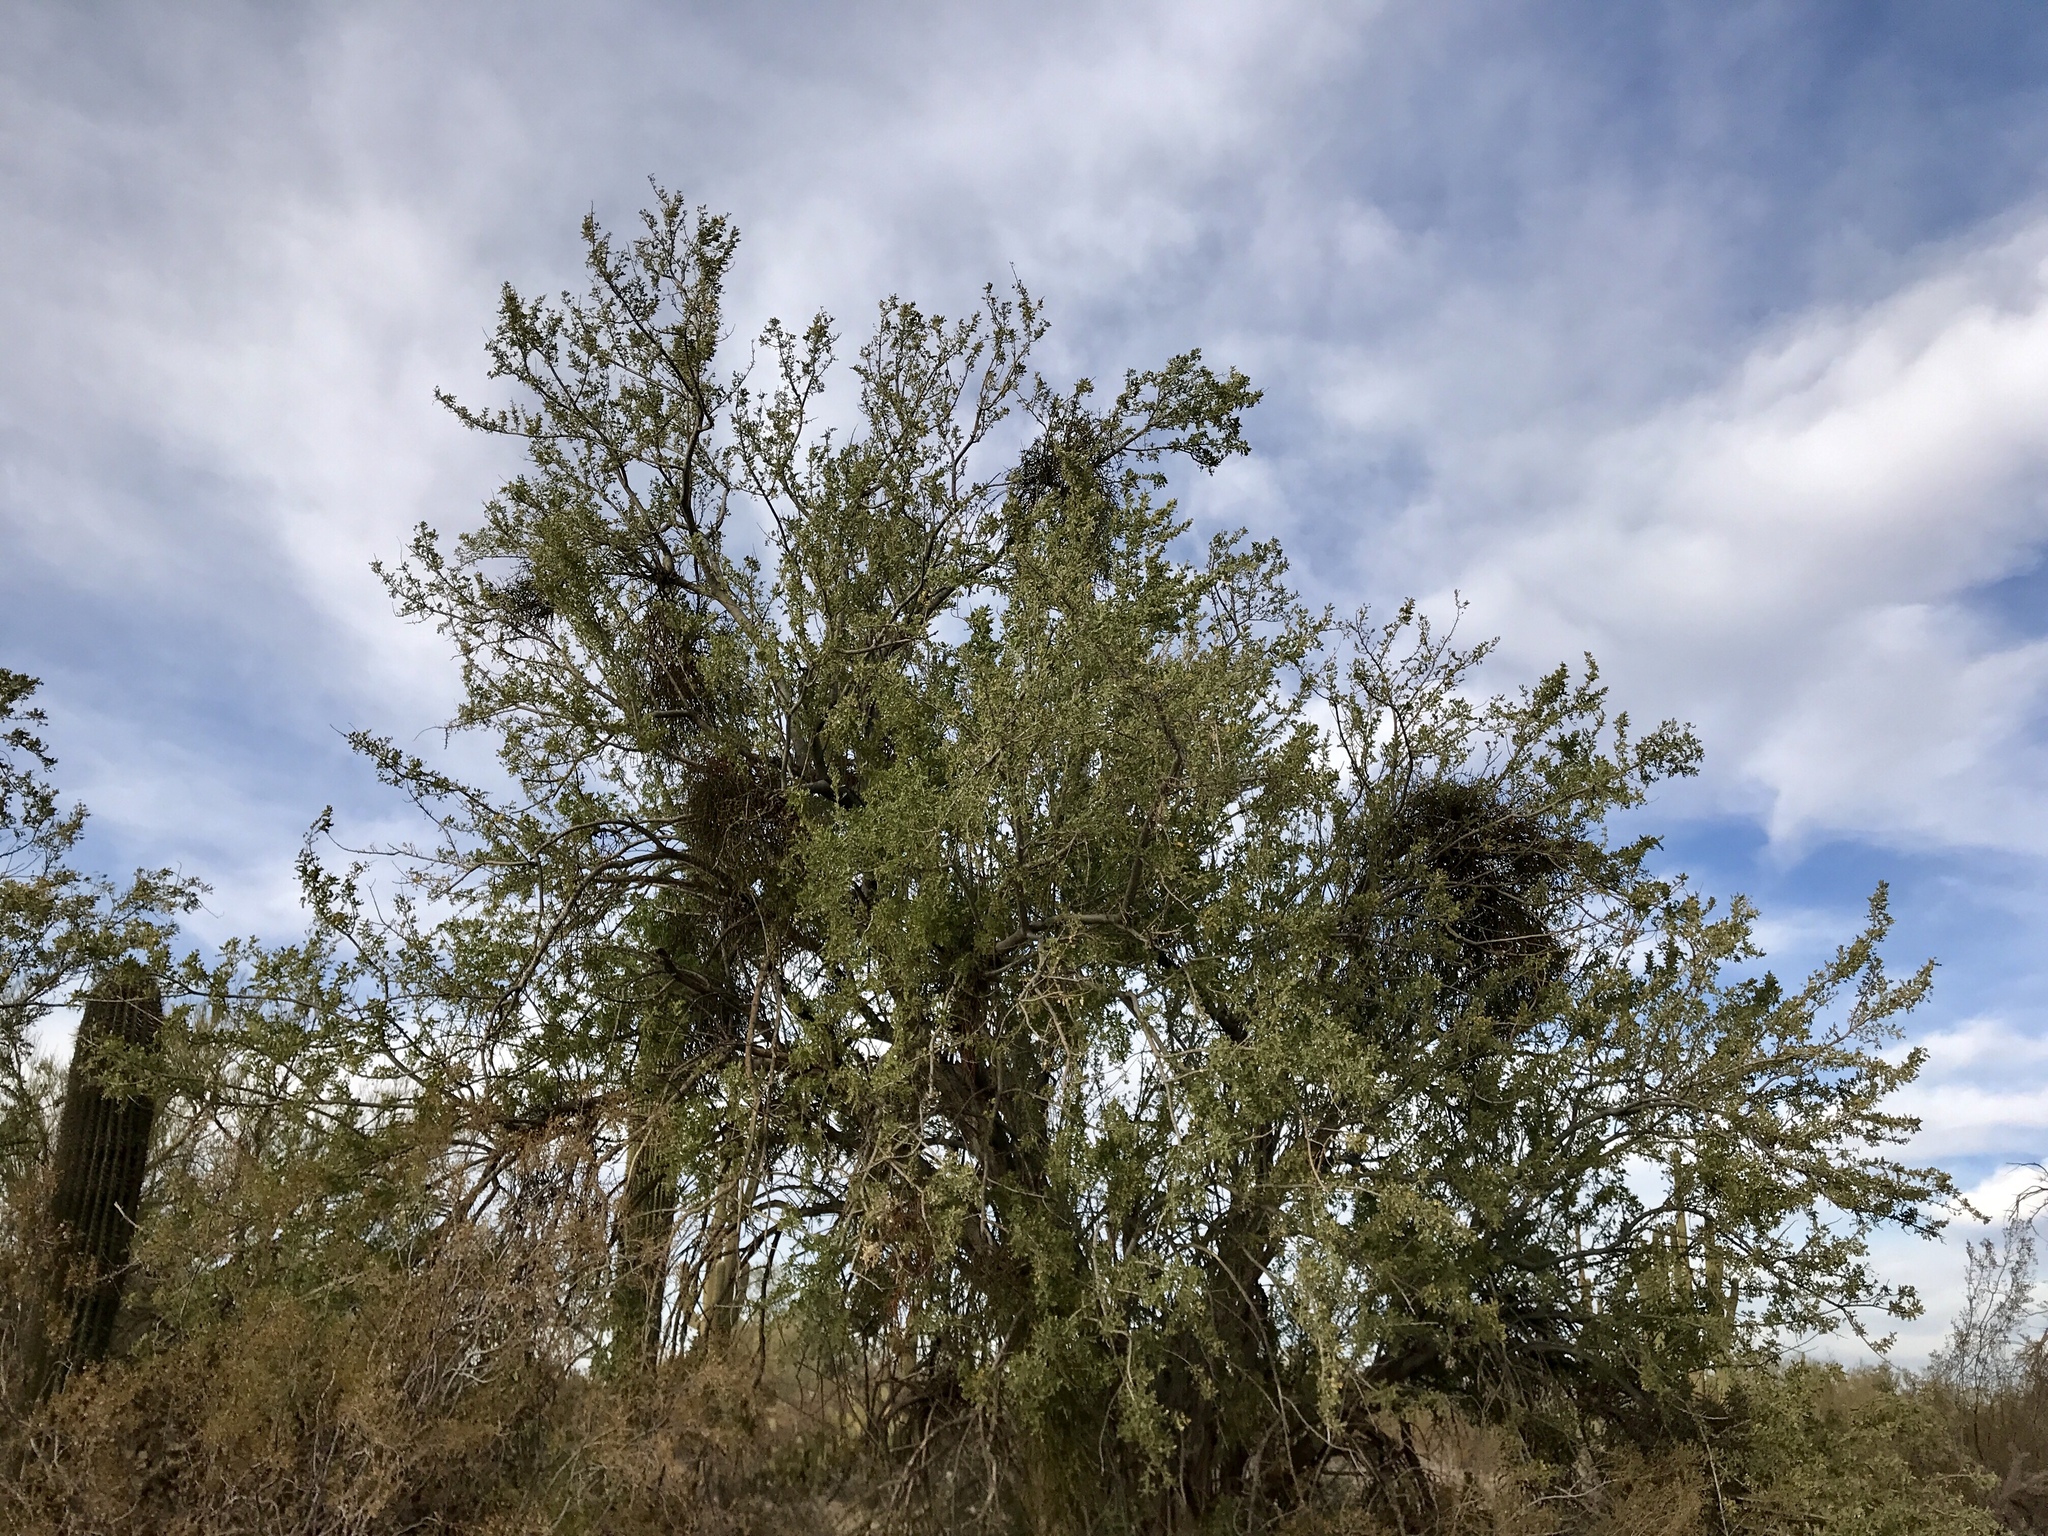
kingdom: Plantae
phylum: Tracheophyta
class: Magnoliopsida
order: Fabales
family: Fabaceae
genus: Olneya
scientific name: Olneya tesota
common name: Desert ironwood
